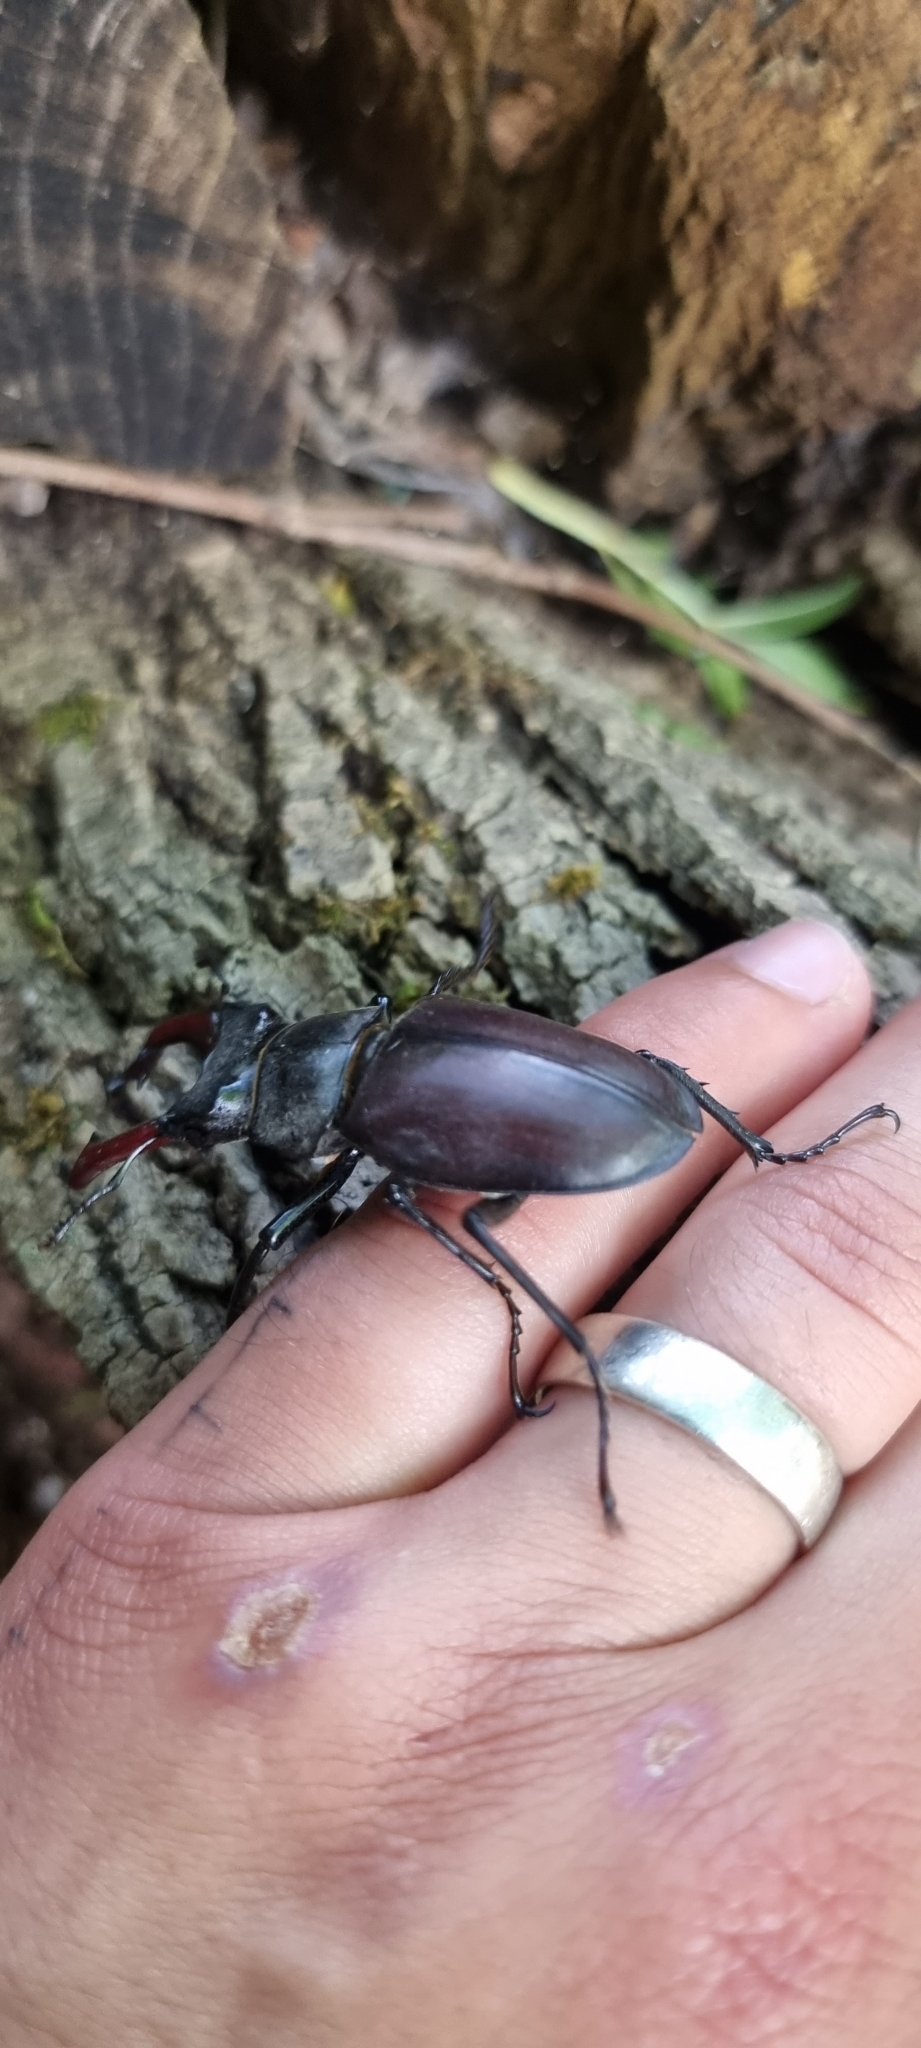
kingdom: Animalia
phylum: Arthropoda
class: Insecta
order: Coleoptera
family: Lucanidae
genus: Lucanus
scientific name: Lucanus cervus
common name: Stag beetle
